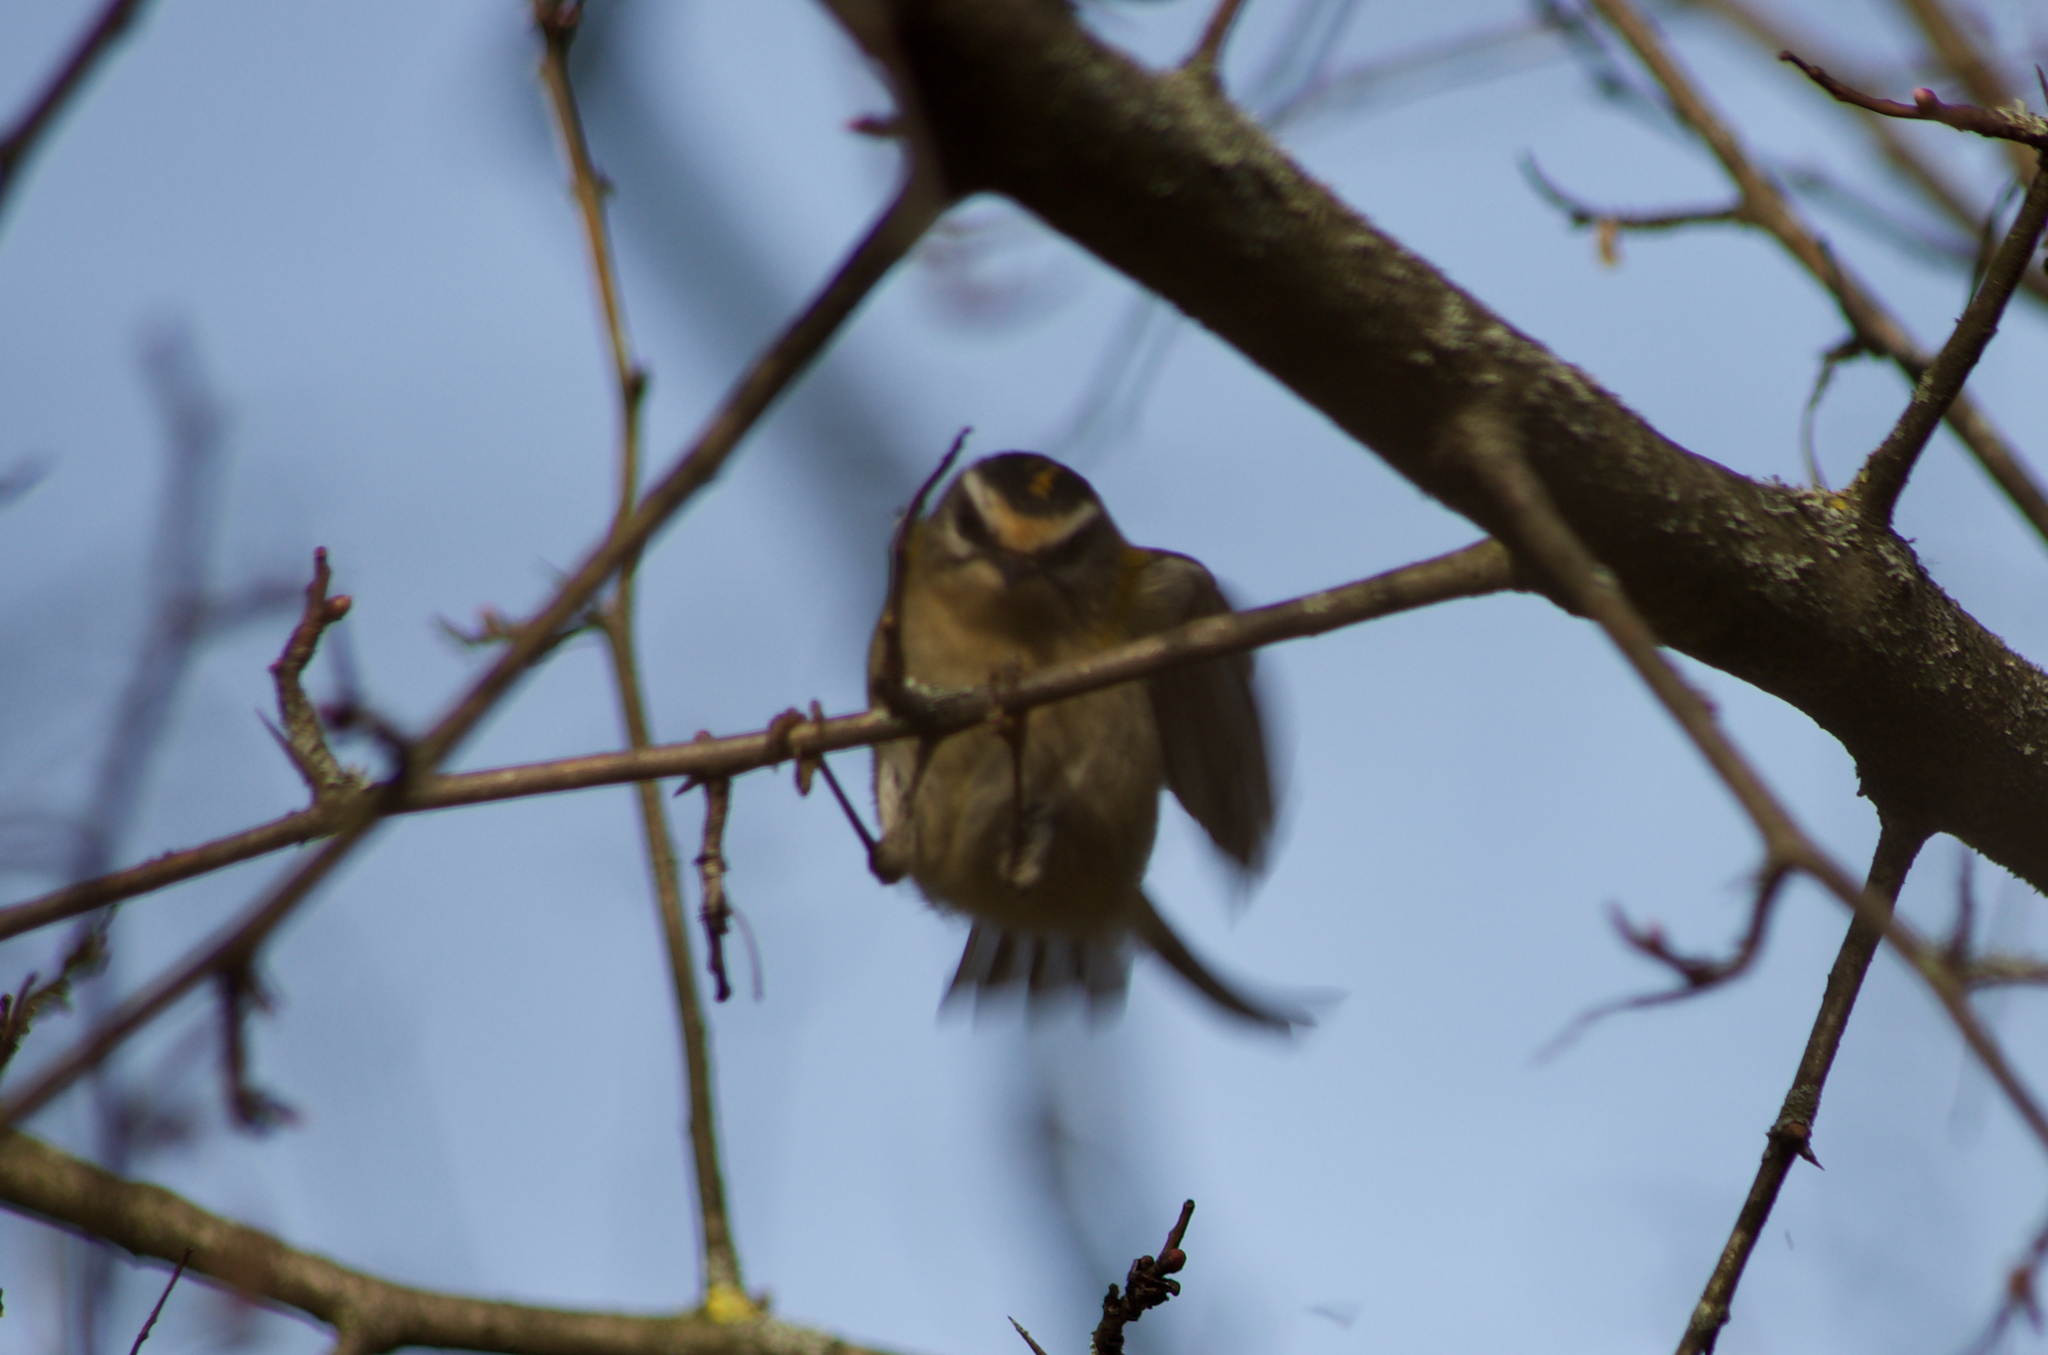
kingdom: Animalia
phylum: Chordata
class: Aves
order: Passeriformes
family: Regulidae
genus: Regulus
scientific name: Regulus ignicapilla
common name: Firecrest
